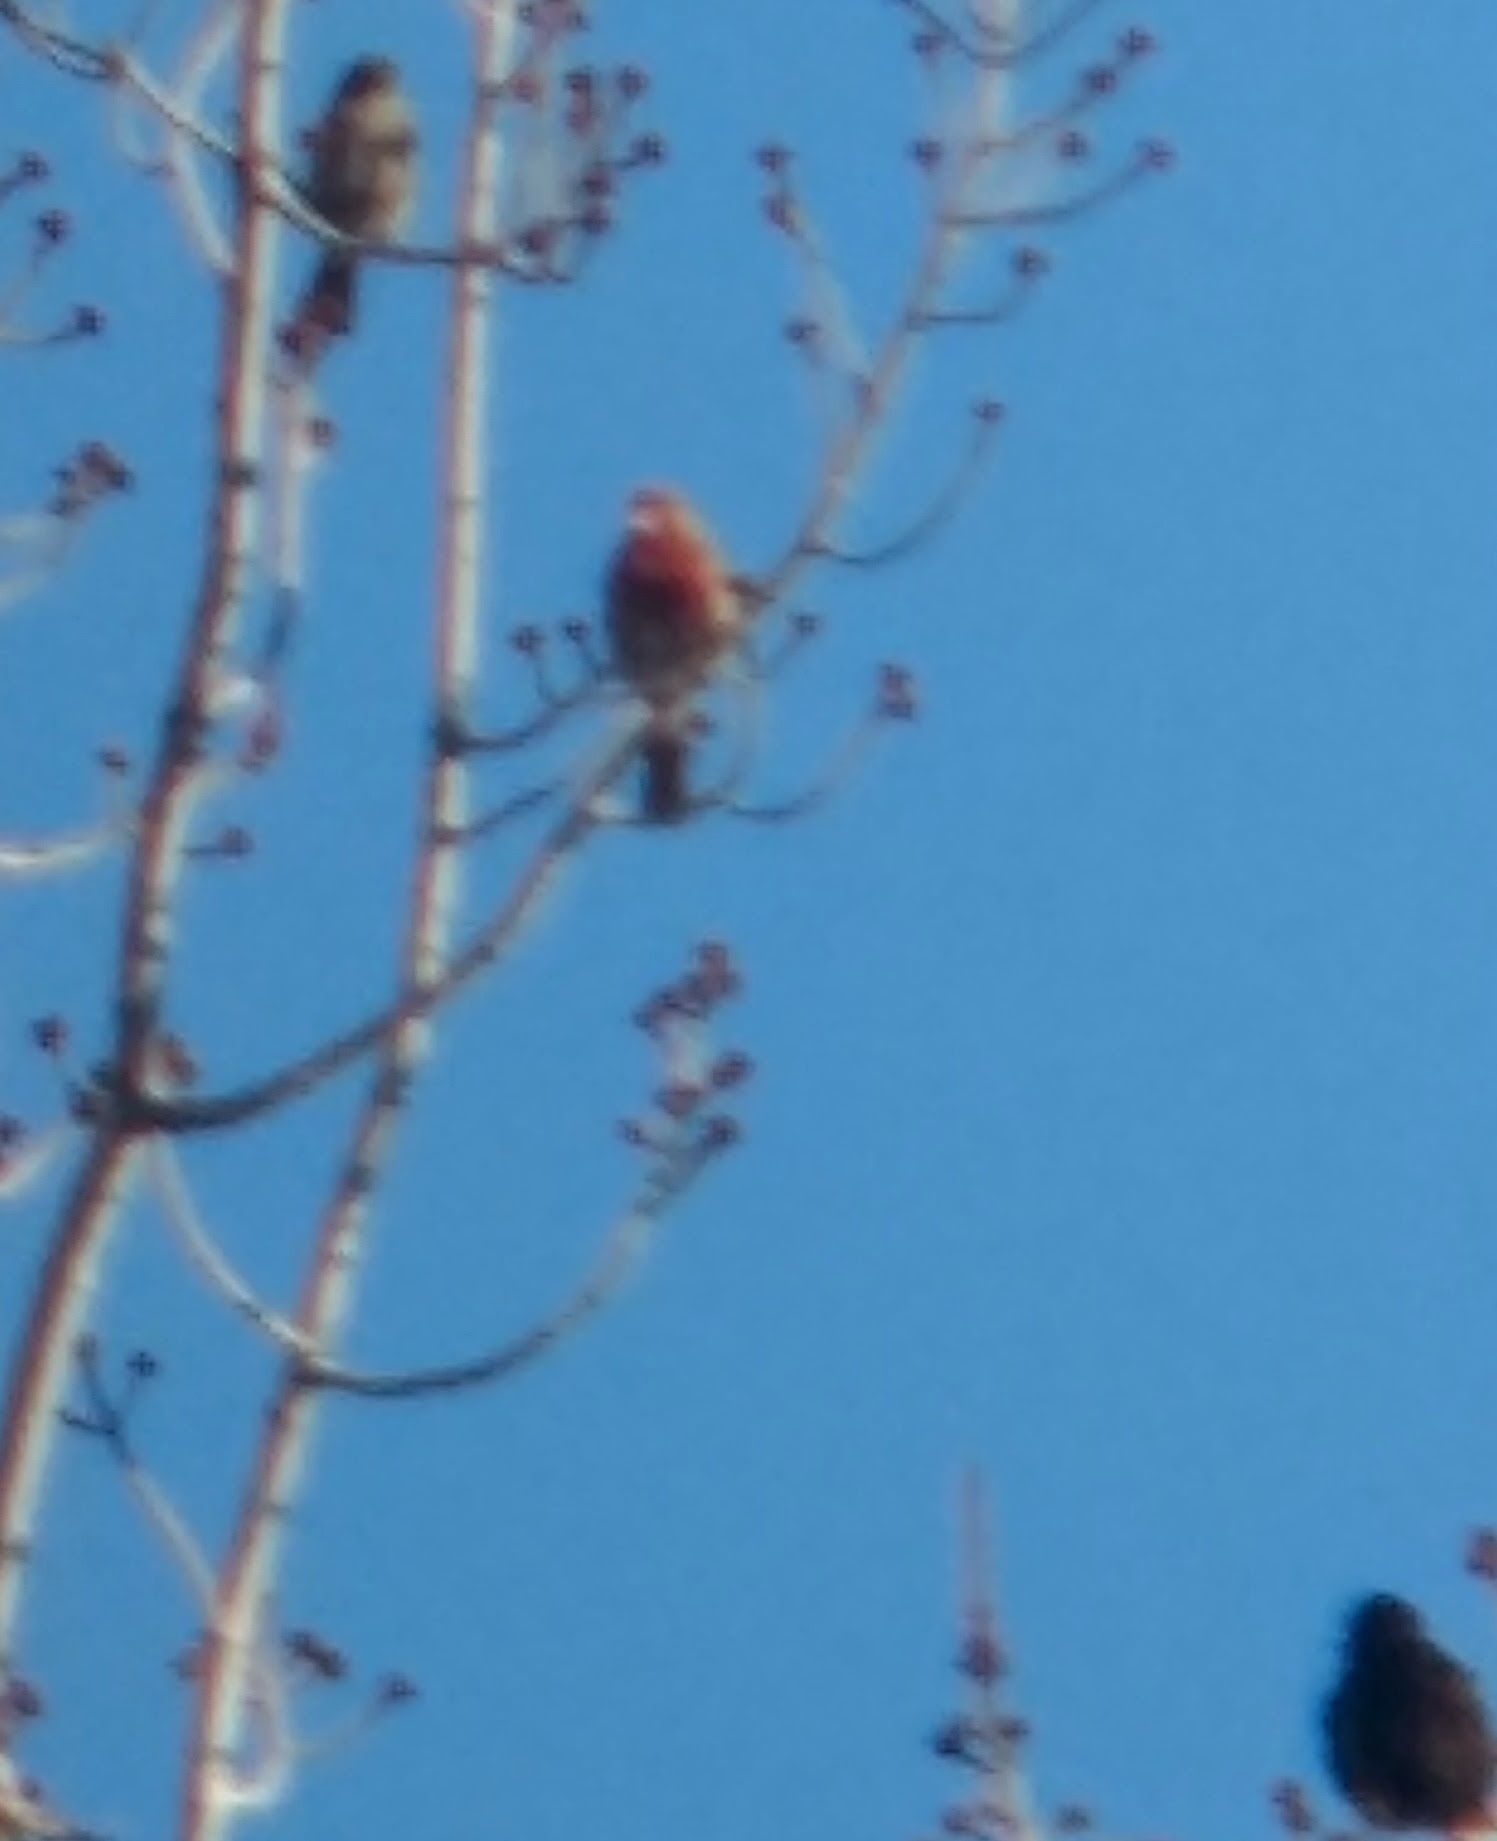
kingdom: Animalia
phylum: Chordata
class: Aves
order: Passeriformes
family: Fringillidae
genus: Haemorhous
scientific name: Haemorhous mexicanus
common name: House finch
